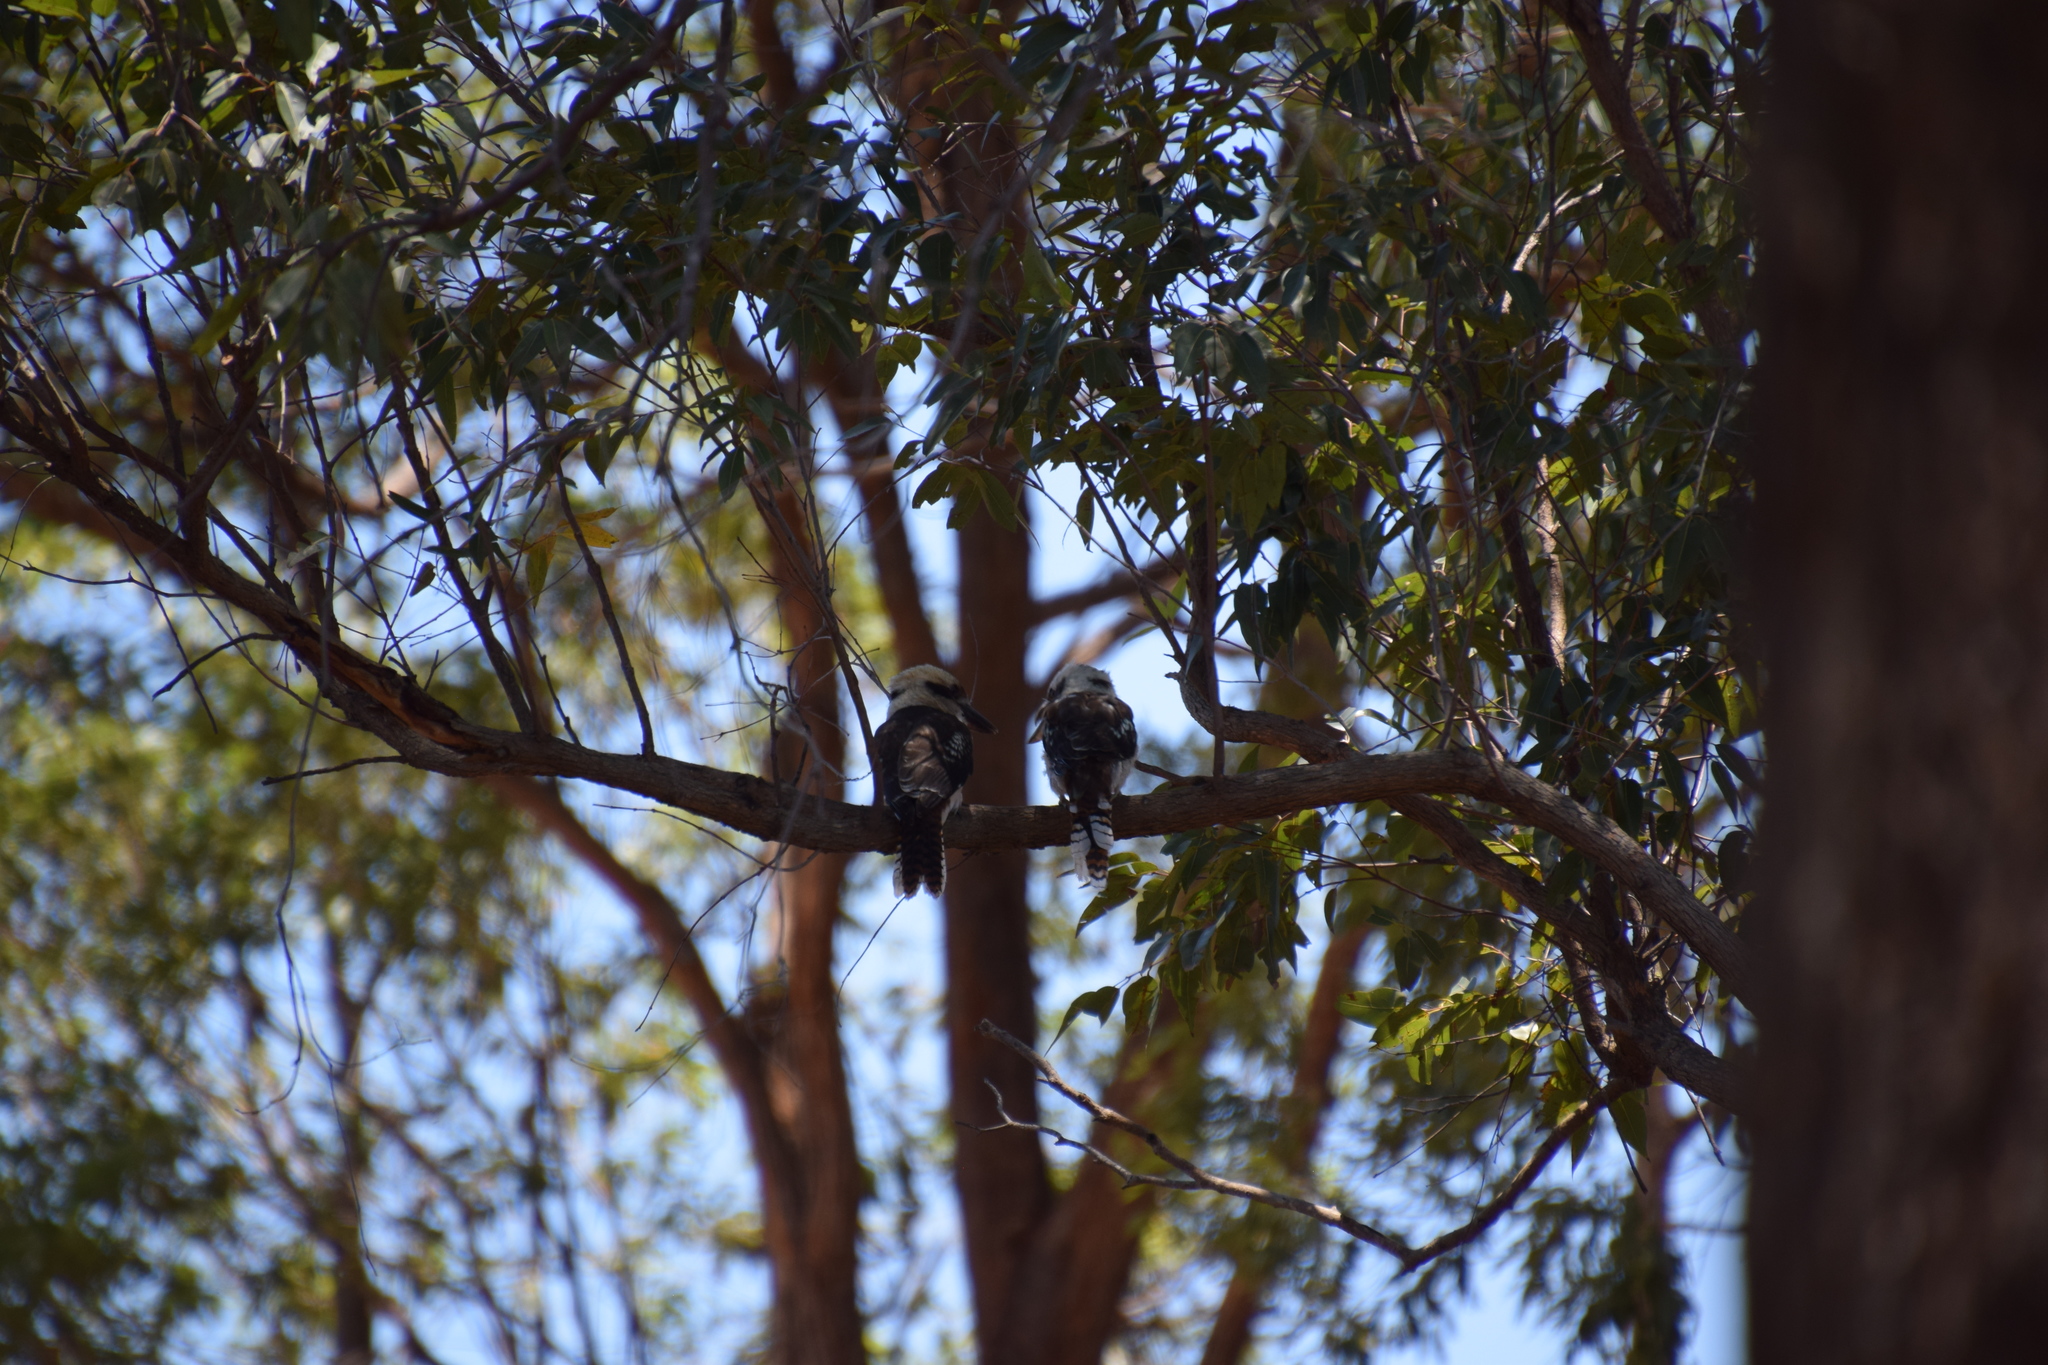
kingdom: Animalia
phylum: Chordata
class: Aves
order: Coraciiformes
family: Alcedinidae
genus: Dacelo
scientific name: Dacelo novaeguineae
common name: Laughing kookaburra
